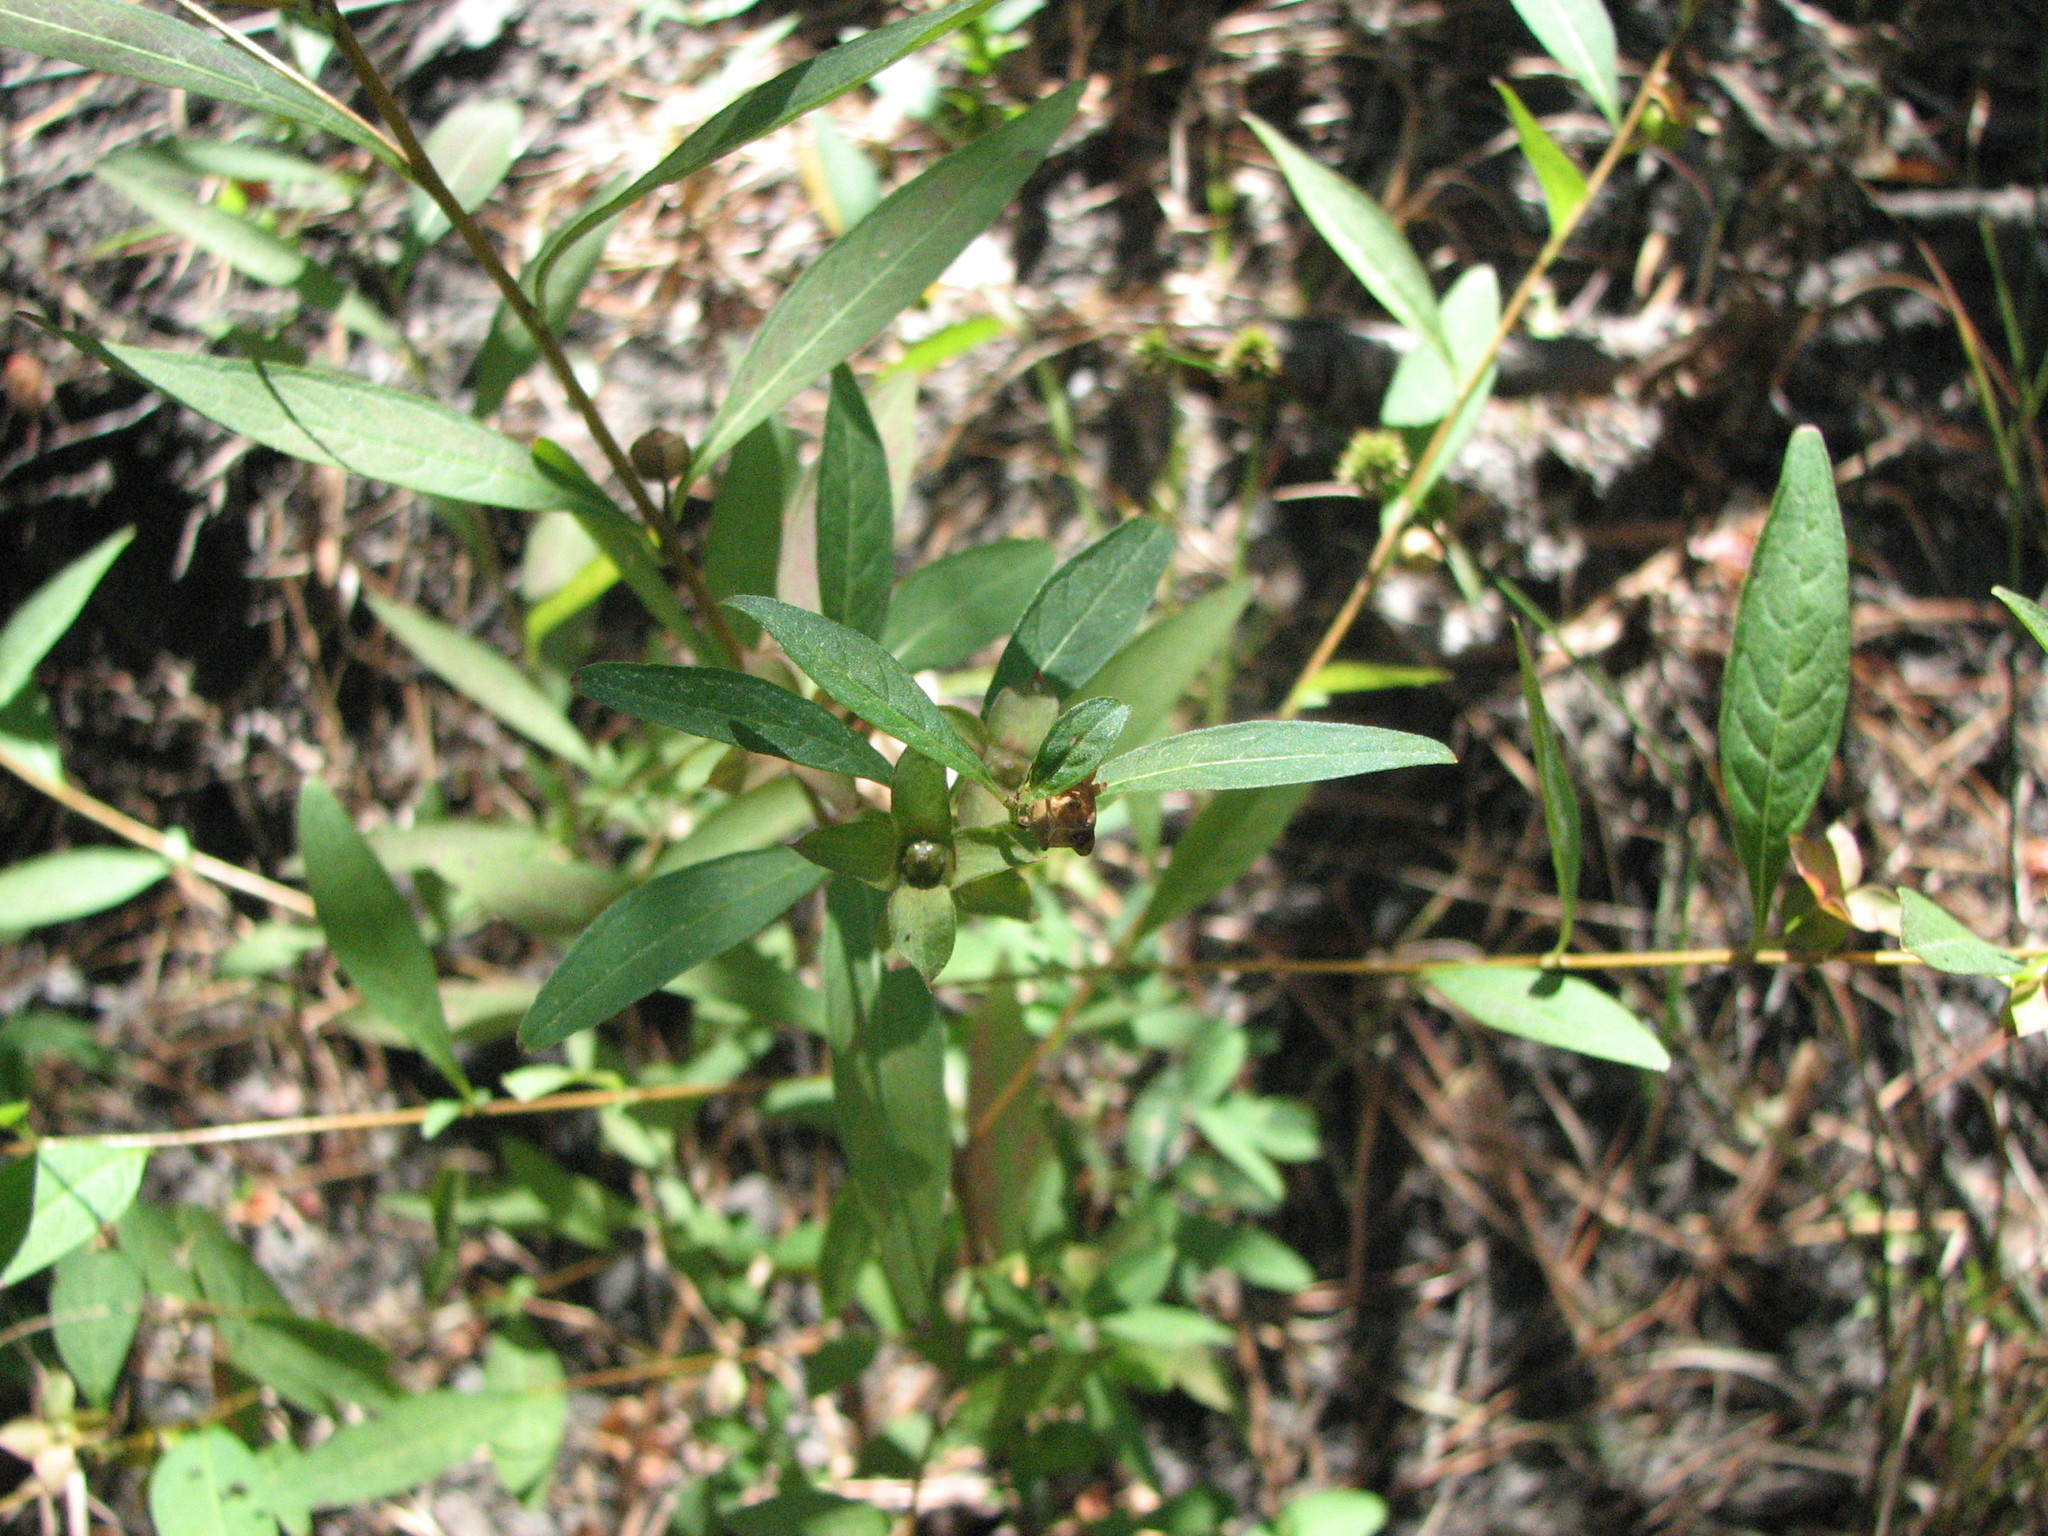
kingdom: Plantae
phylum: Tracheophyta
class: Magnoliopsida
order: Myrtales
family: Onagraceae
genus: Ludwigia
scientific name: Ludwigia alternifolia
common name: Rattlebox
